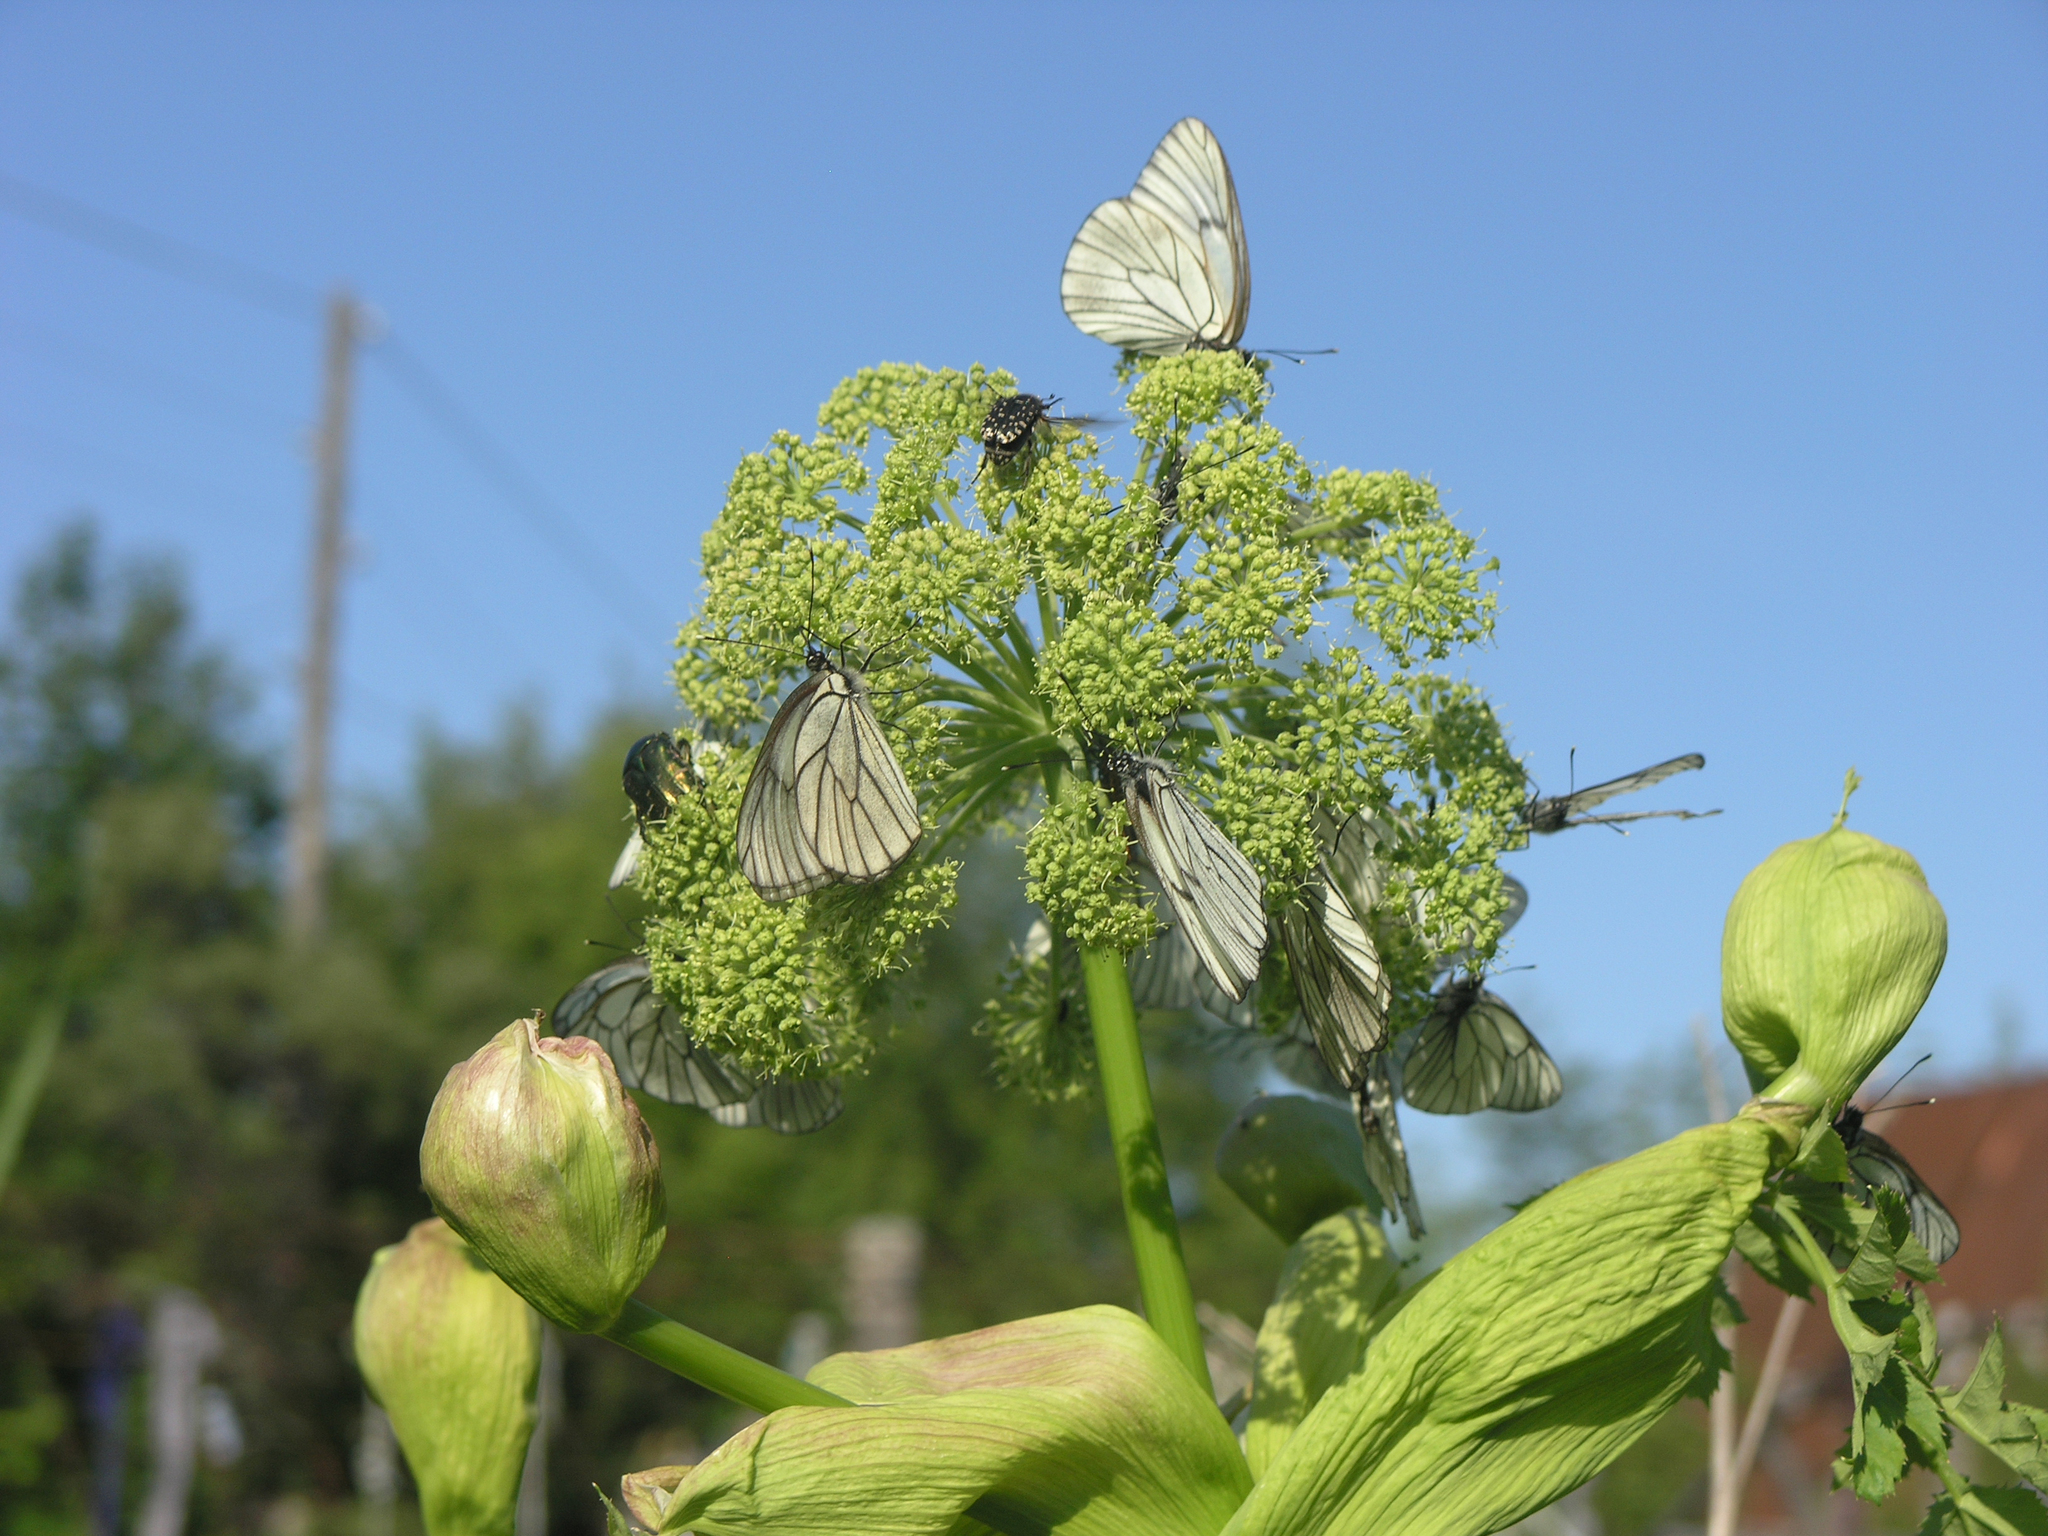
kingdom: Animalia
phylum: Arthropoda
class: Insecta
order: Lepidoptera
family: Pieridae
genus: Aporia
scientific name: Aporia crataegi
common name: Black-veined white
